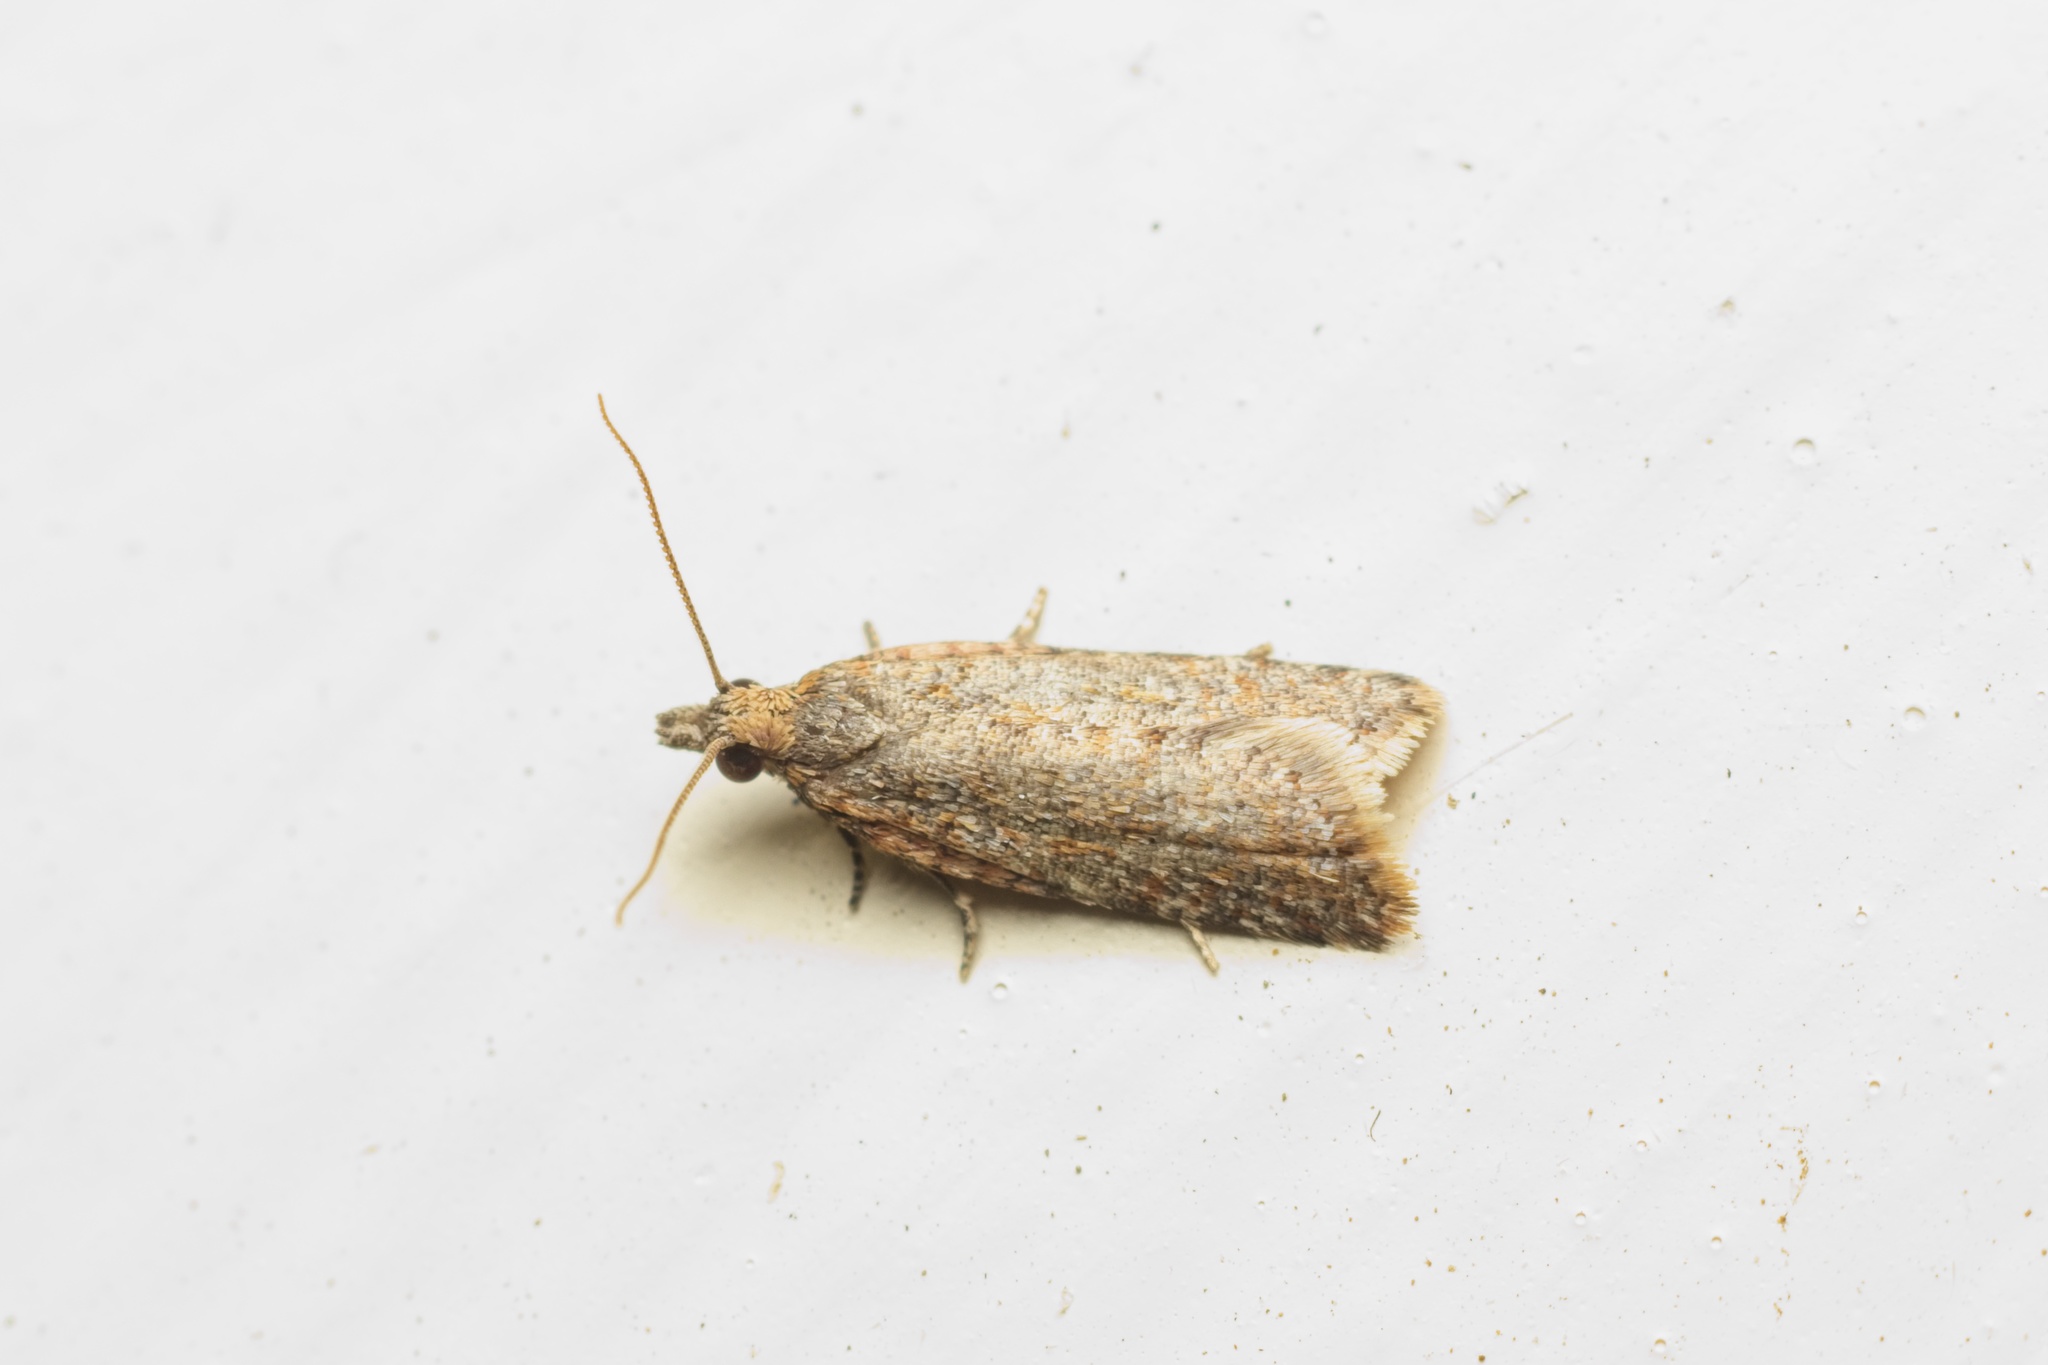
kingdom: Animalia
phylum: Arthropoda
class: Insecta
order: Lepidoptera
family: Tortricidae
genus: Capua
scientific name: Capua semiferana
